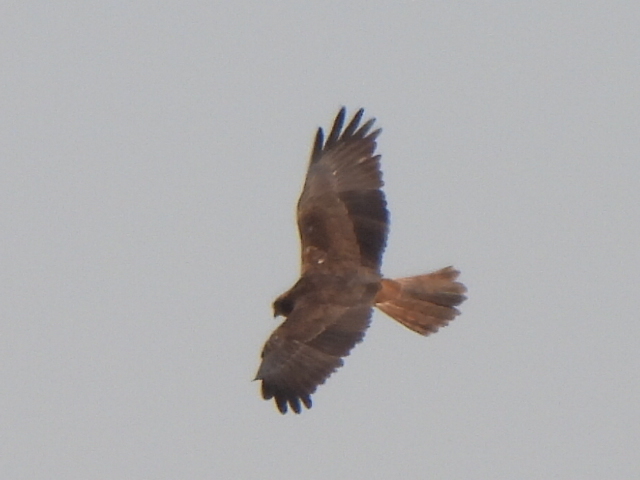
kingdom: Animalia
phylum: Chordata
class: Aves
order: Accipitriformes
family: Accipitridae
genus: Circus
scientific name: Circus aeruginosus
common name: Western marsh harrier
